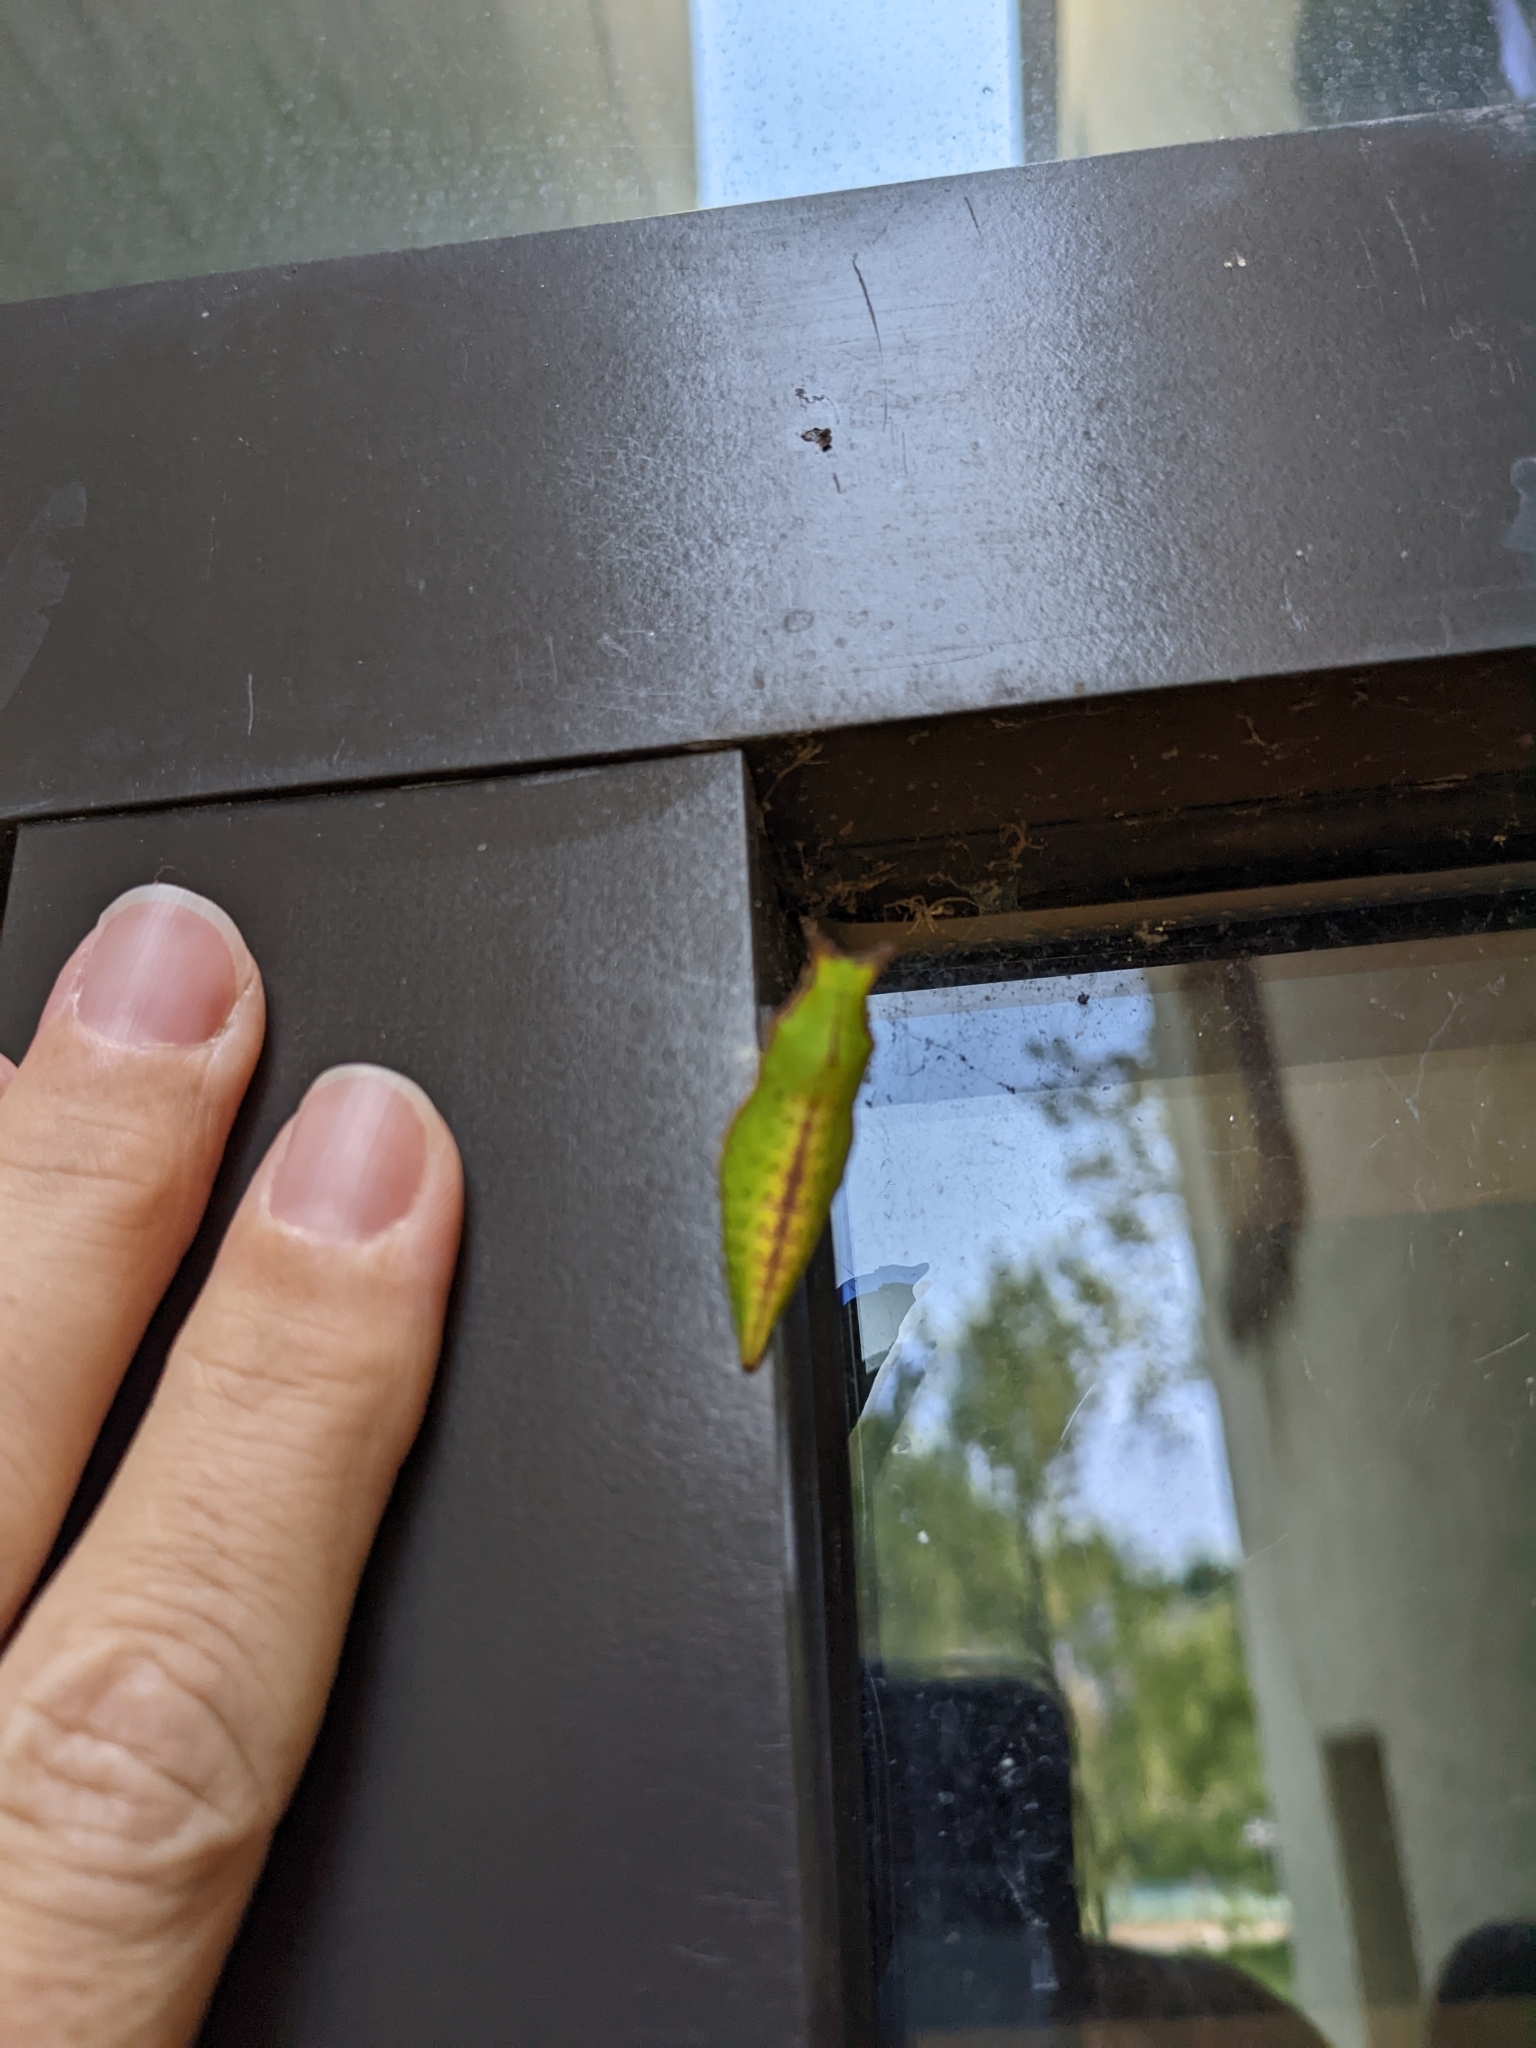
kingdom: Animalia
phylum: Arthropoda
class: Insecta
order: Lepidoptera
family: Papilionidae
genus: Papilio
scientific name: Papilio troilus
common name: Spicebush swallowtail
